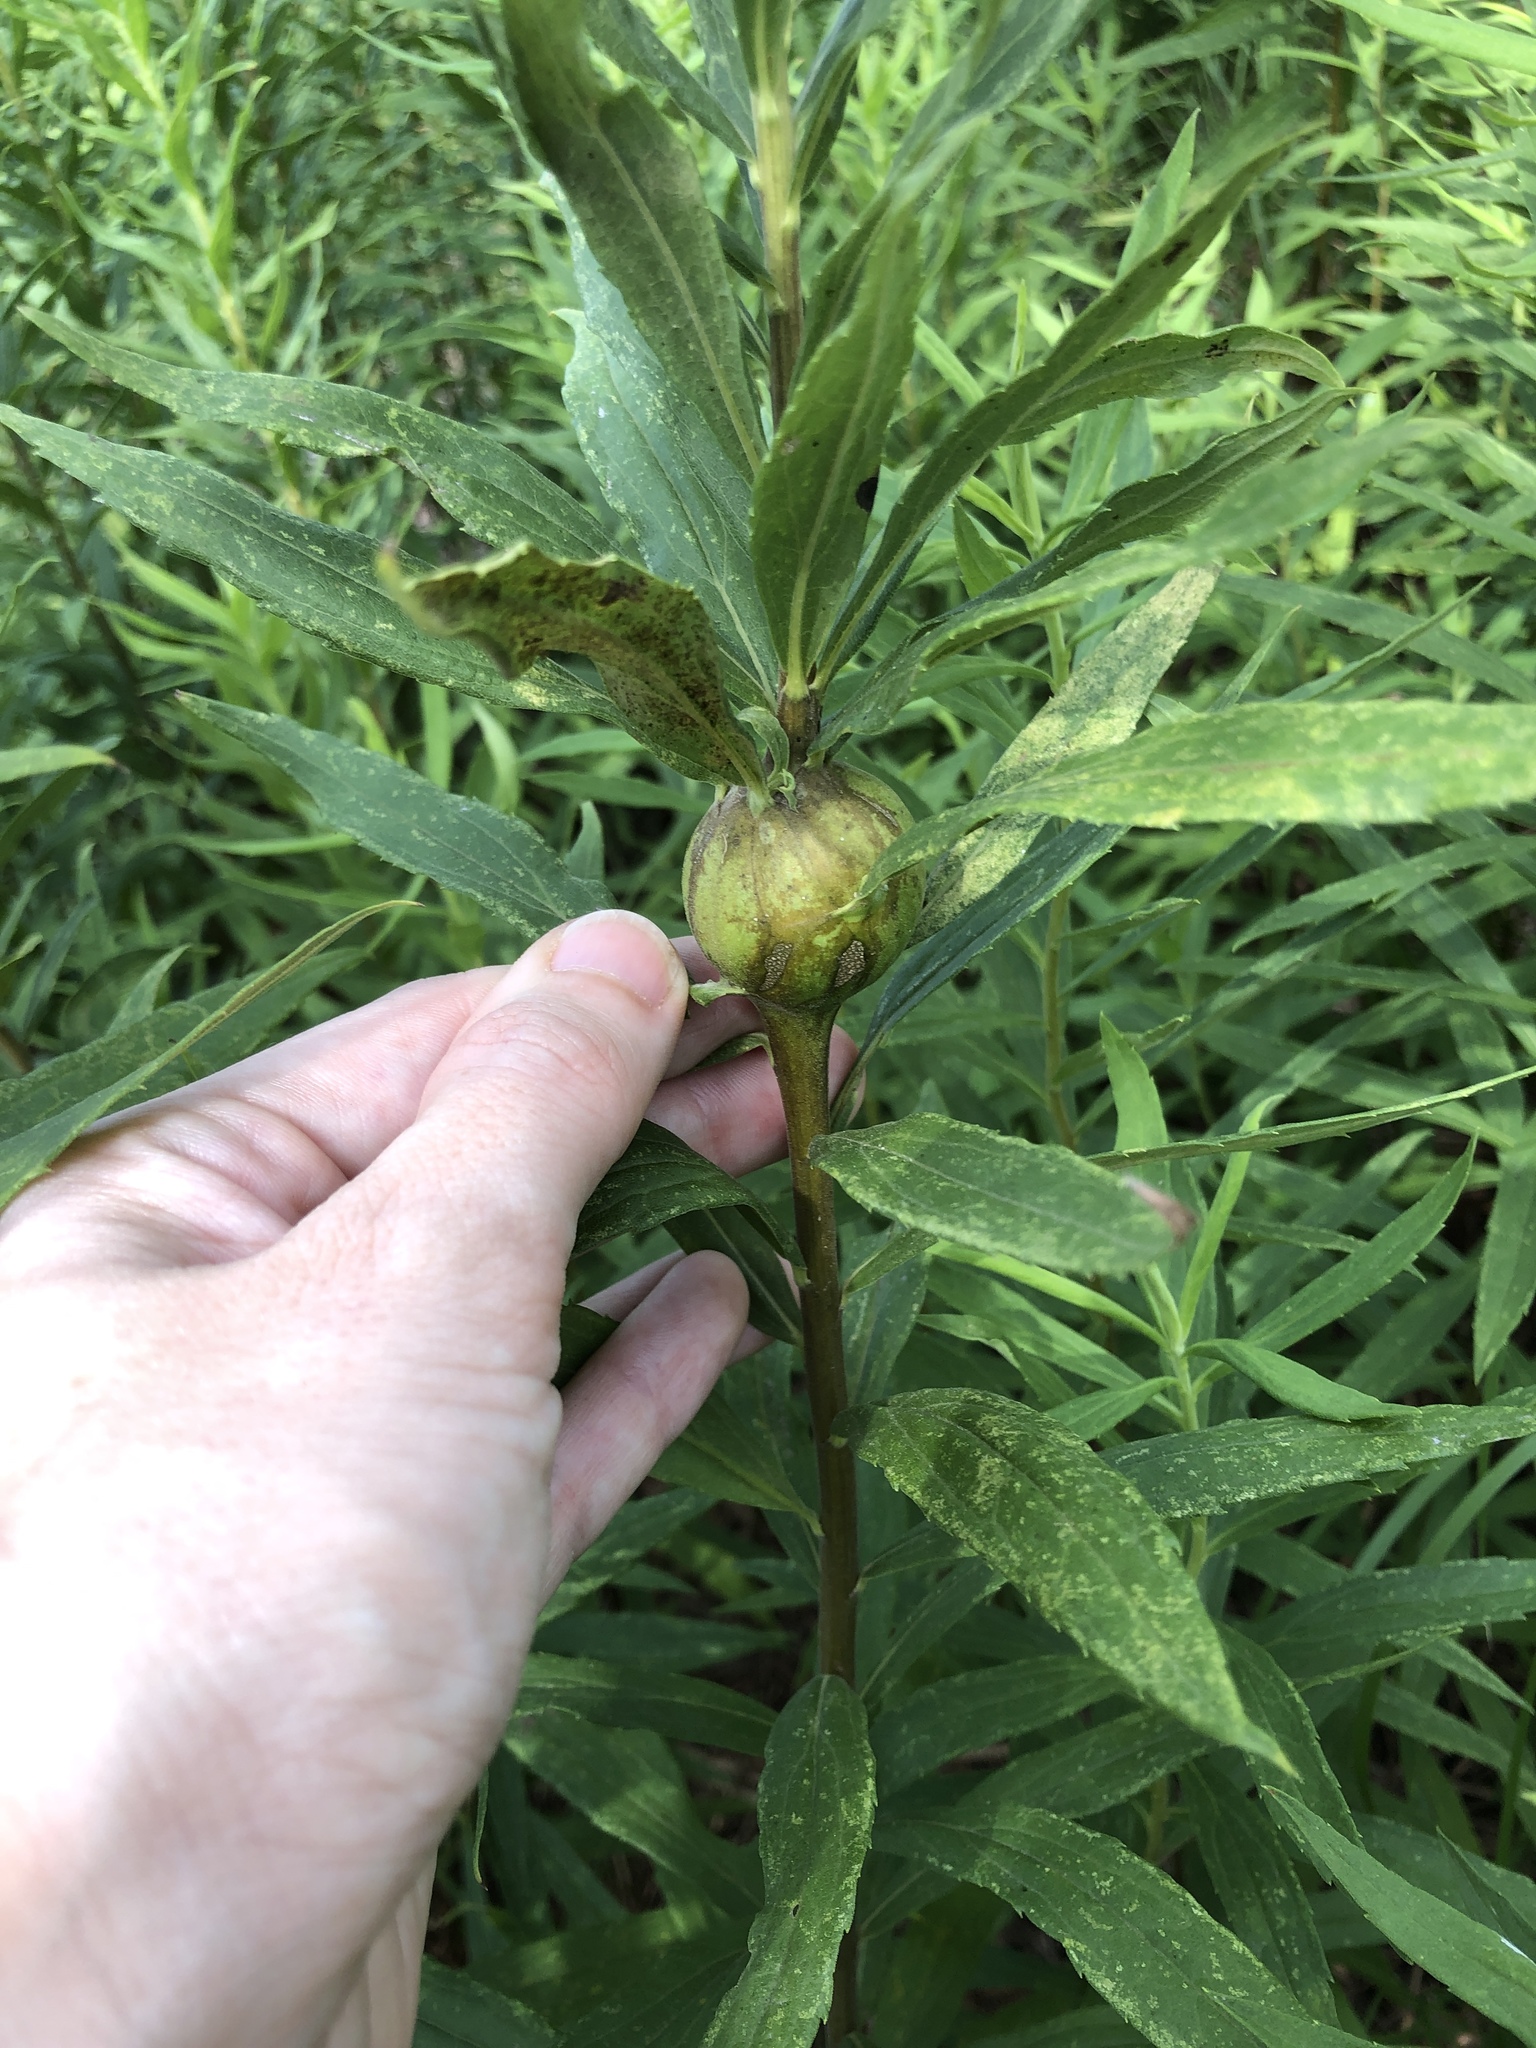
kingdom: Animalia
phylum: Arthropoda
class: Insecta
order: Diptera
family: Tephritidae
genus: Eurosta
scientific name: Eurosta solidaginis
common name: Goldenrod gall fly
